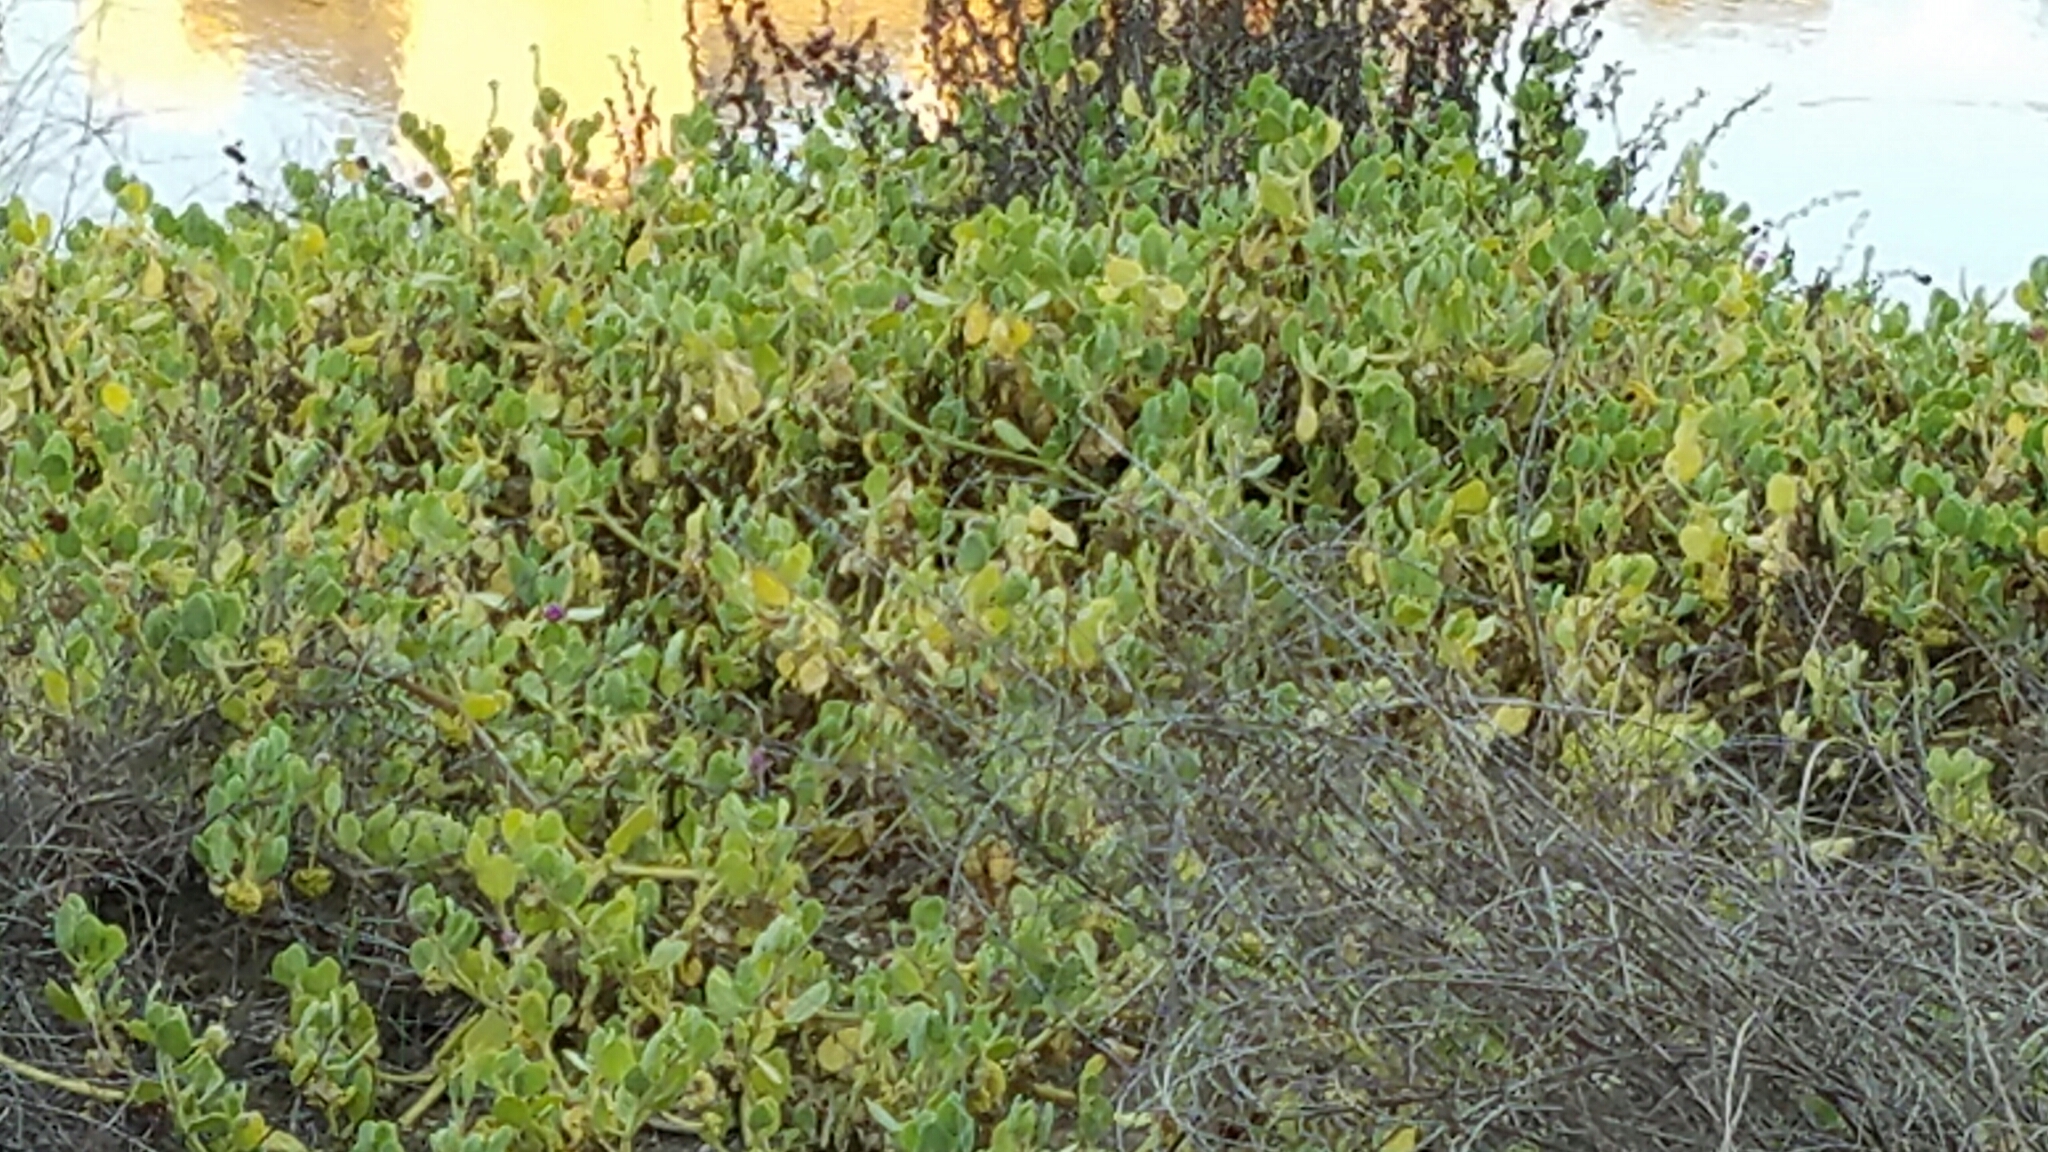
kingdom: Plantae
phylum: Tracheophyta
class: Magnoliopsida
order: Caryophyllales
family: Nyctaginaceae
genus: Abronia
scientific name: Abronia maritima
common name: Red sand-verbena
